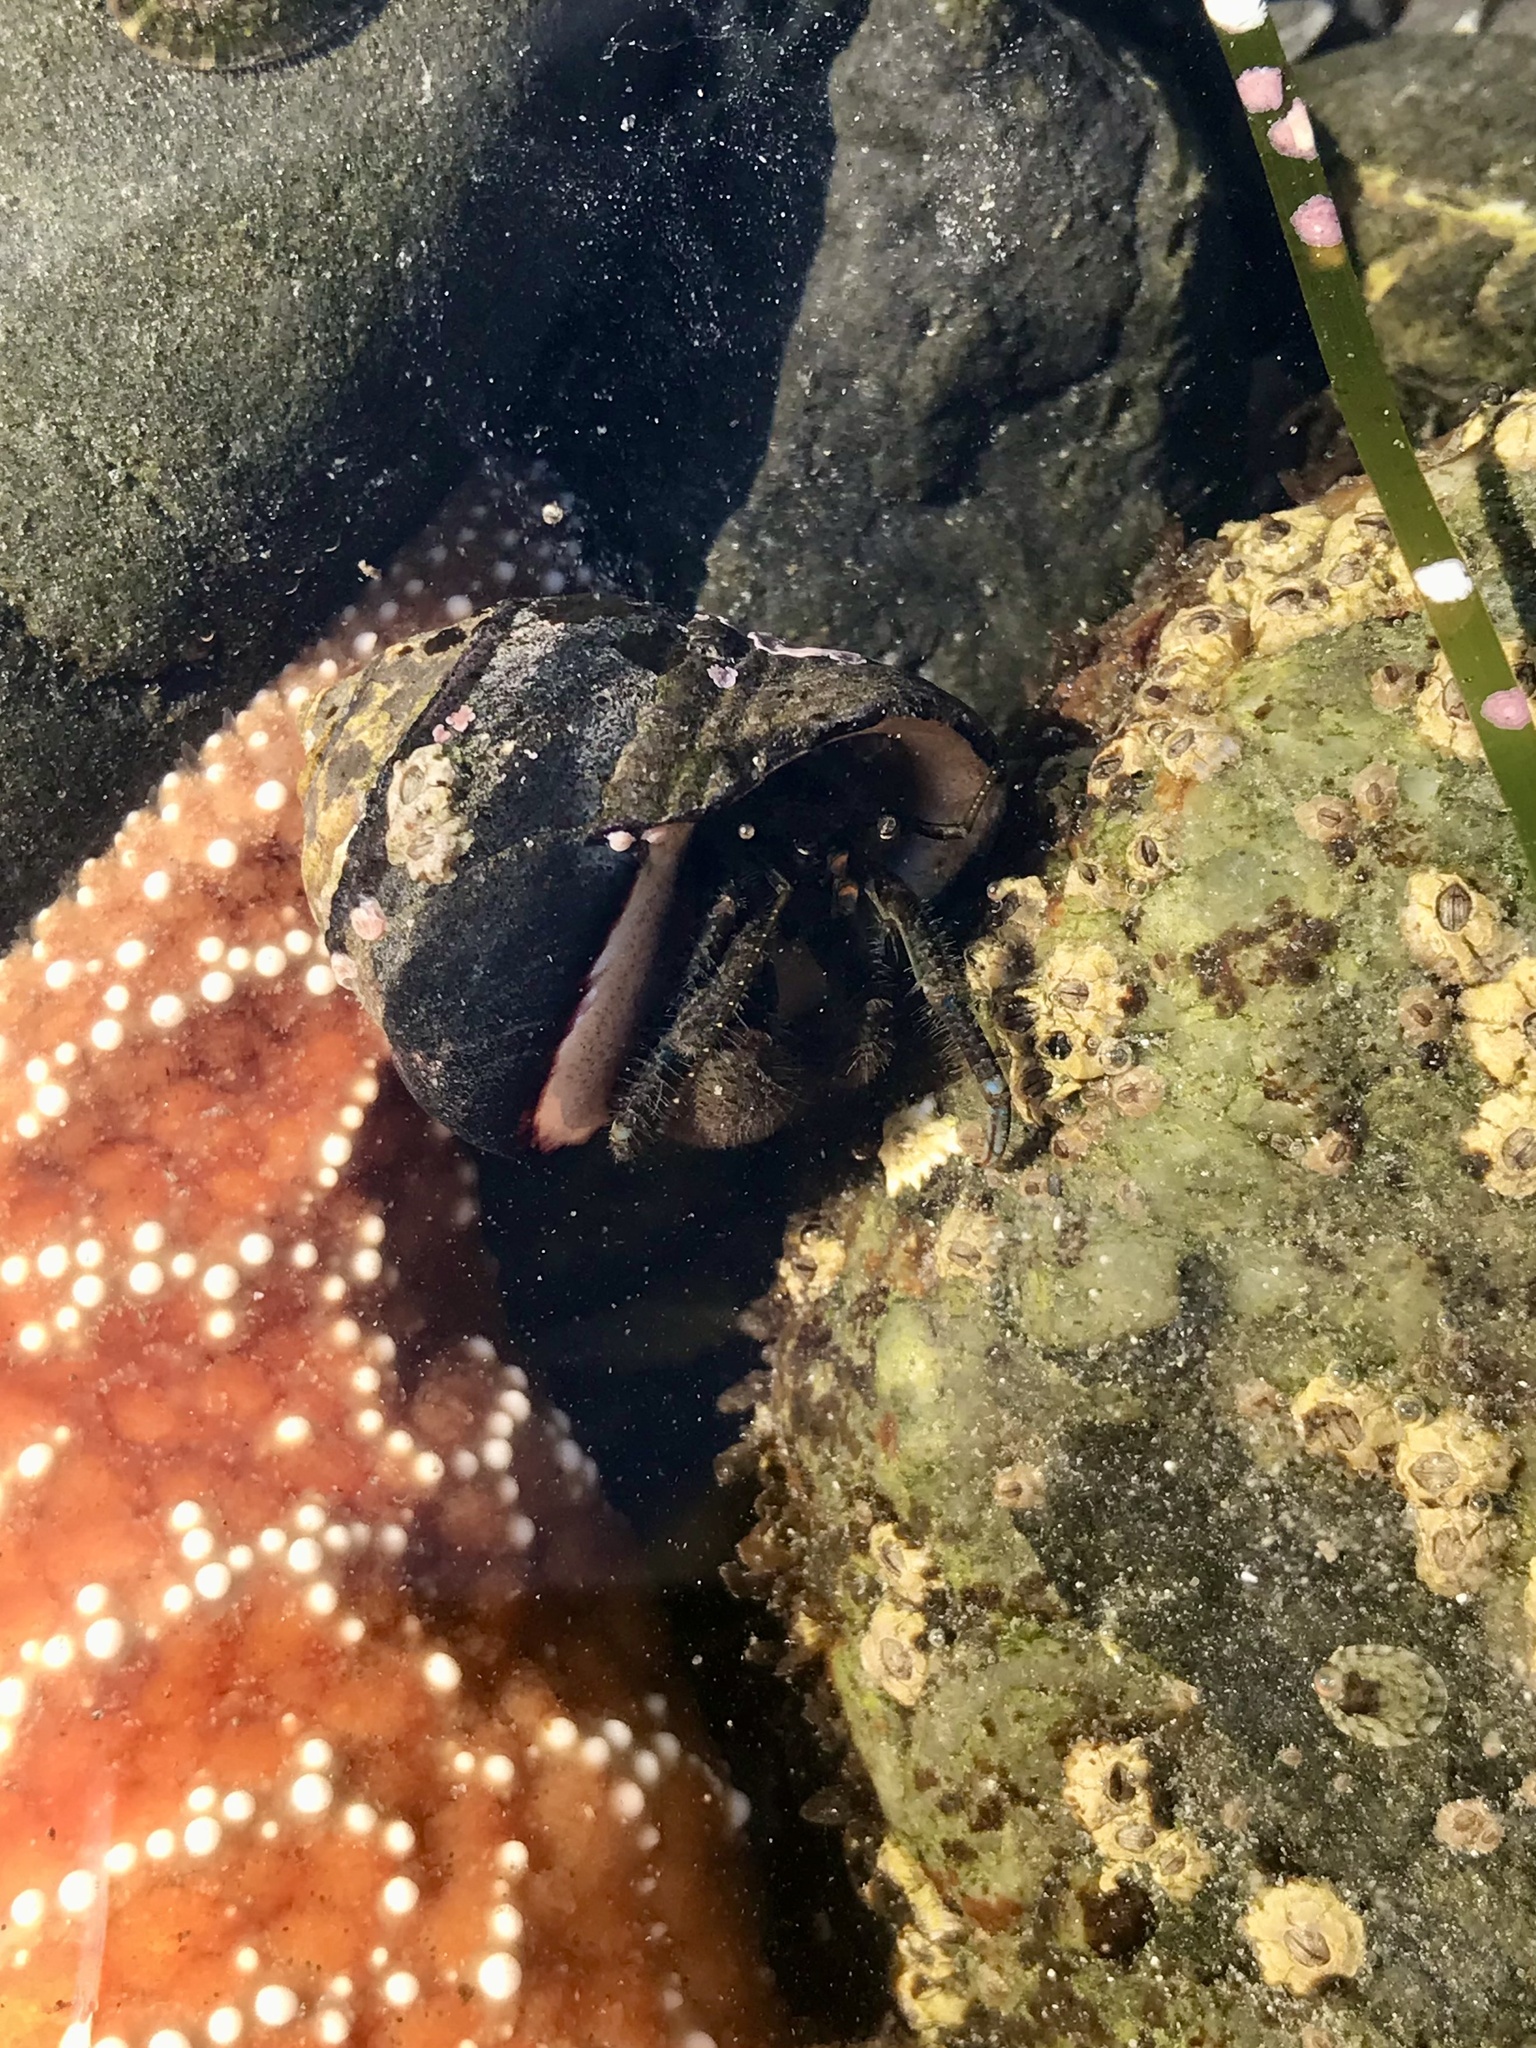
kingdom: Animalia
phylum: Arthropoda
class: Malacostraca
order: Decapoda
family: Paguridae
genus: Pagurus
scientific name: Pagurus hirsutiusculus
